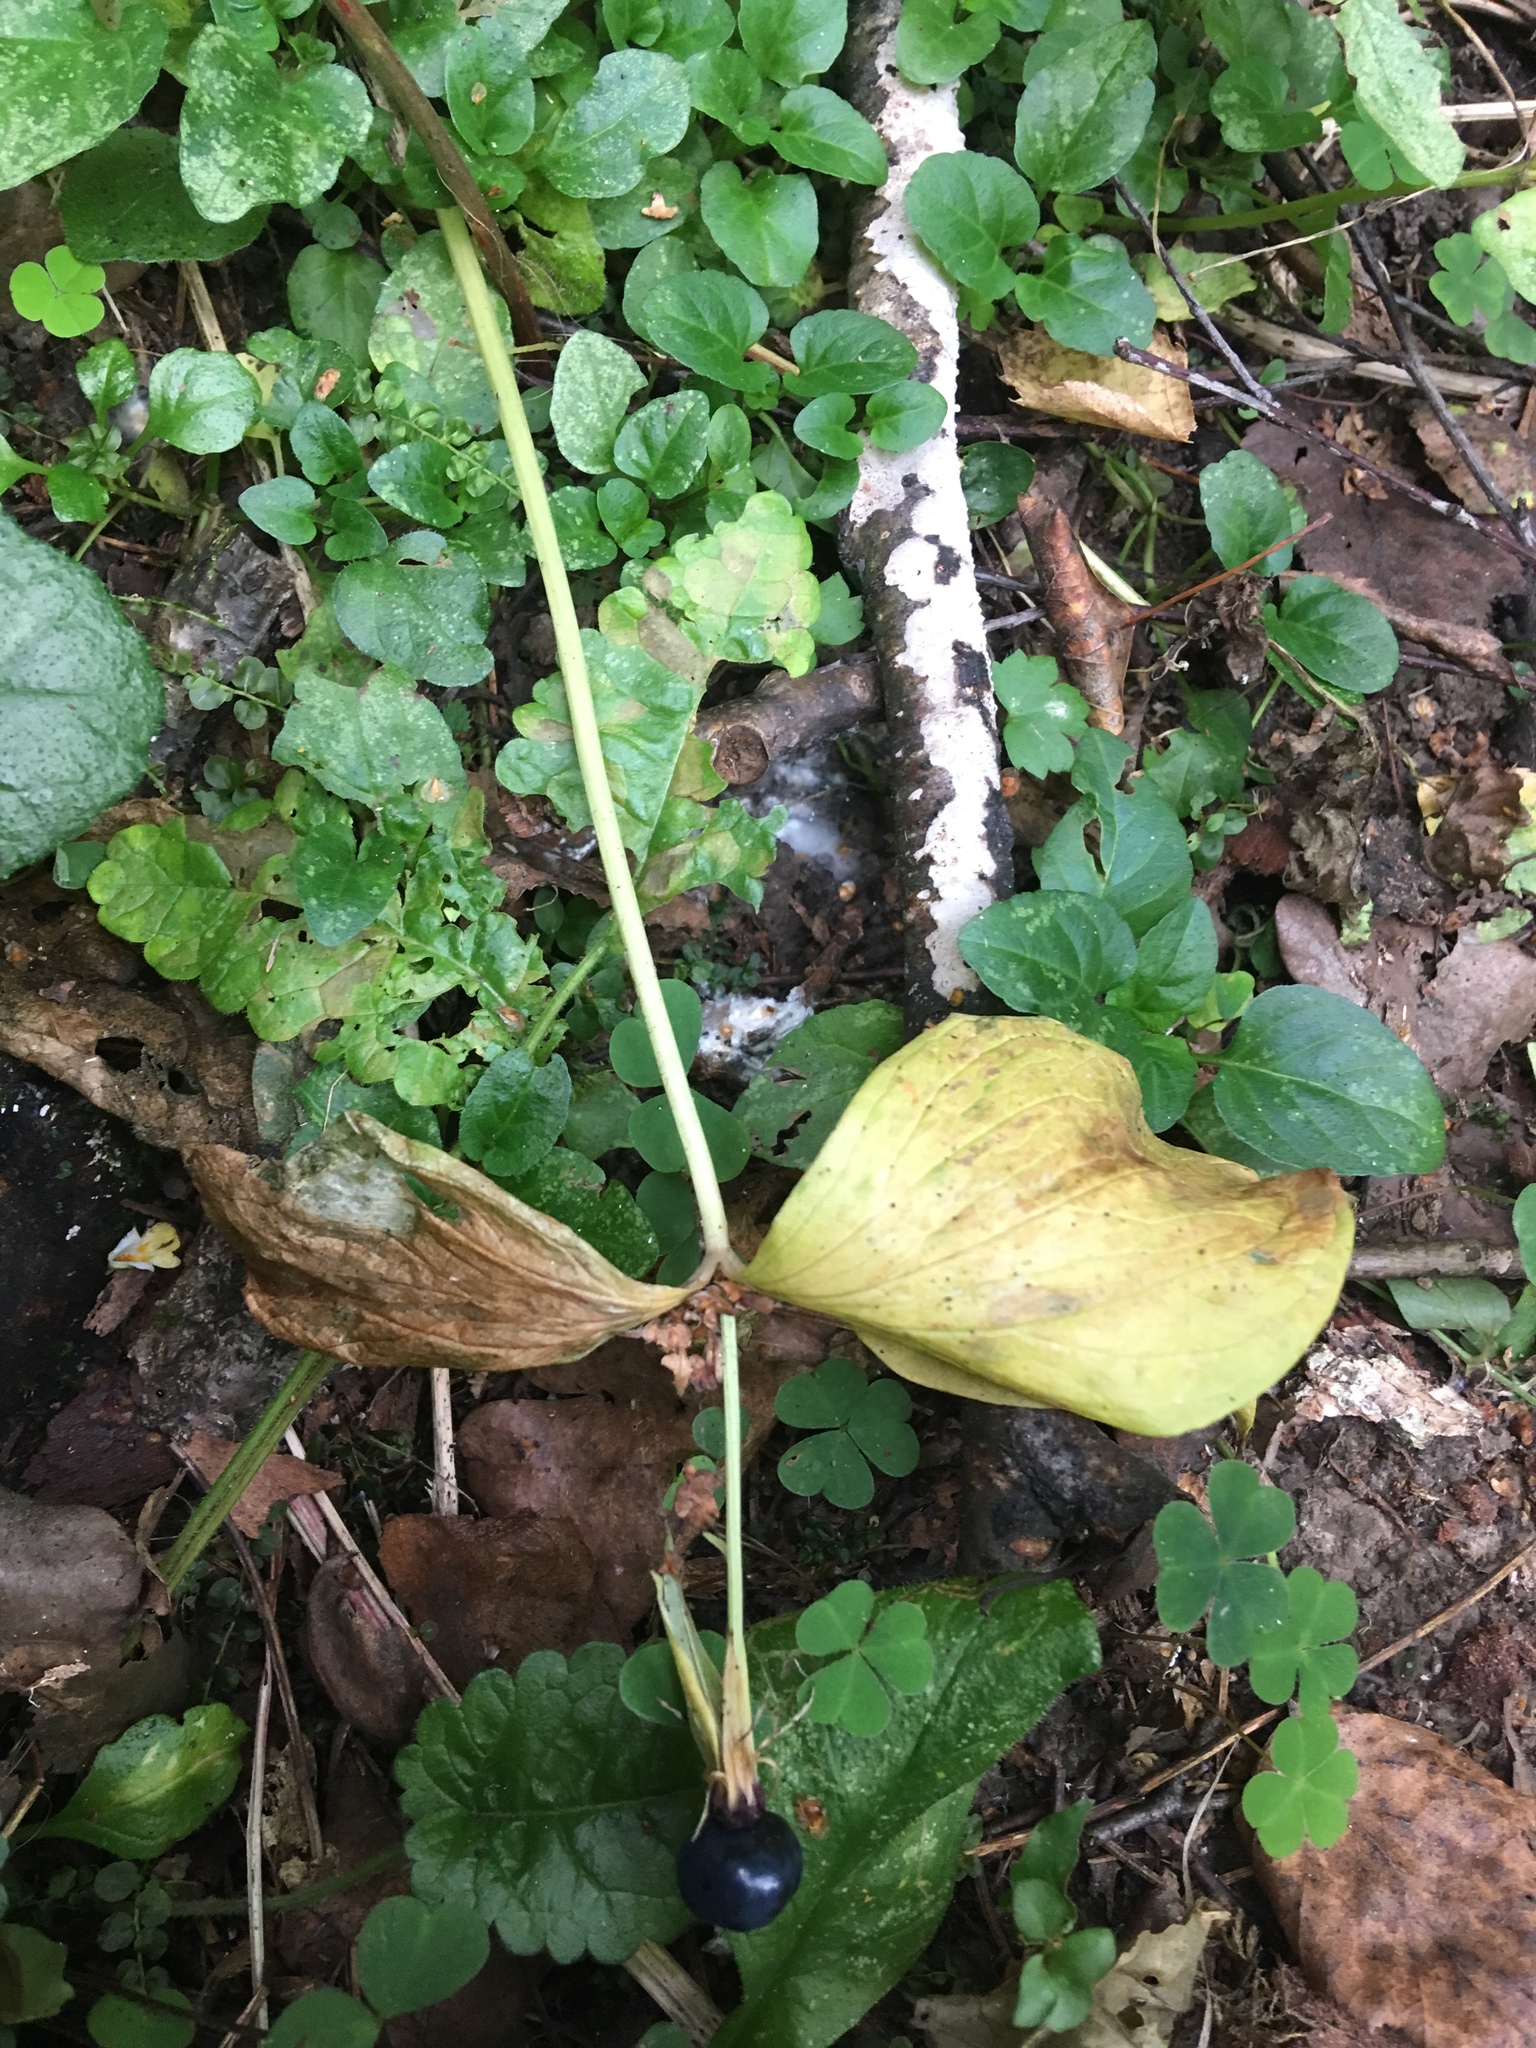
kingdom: Plantae
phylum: Tracheophyta
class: Liliopsida
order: Liliales
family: Melanthiaceae
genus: Paris
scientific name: Paris quadrifolia
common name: Herb-paris
